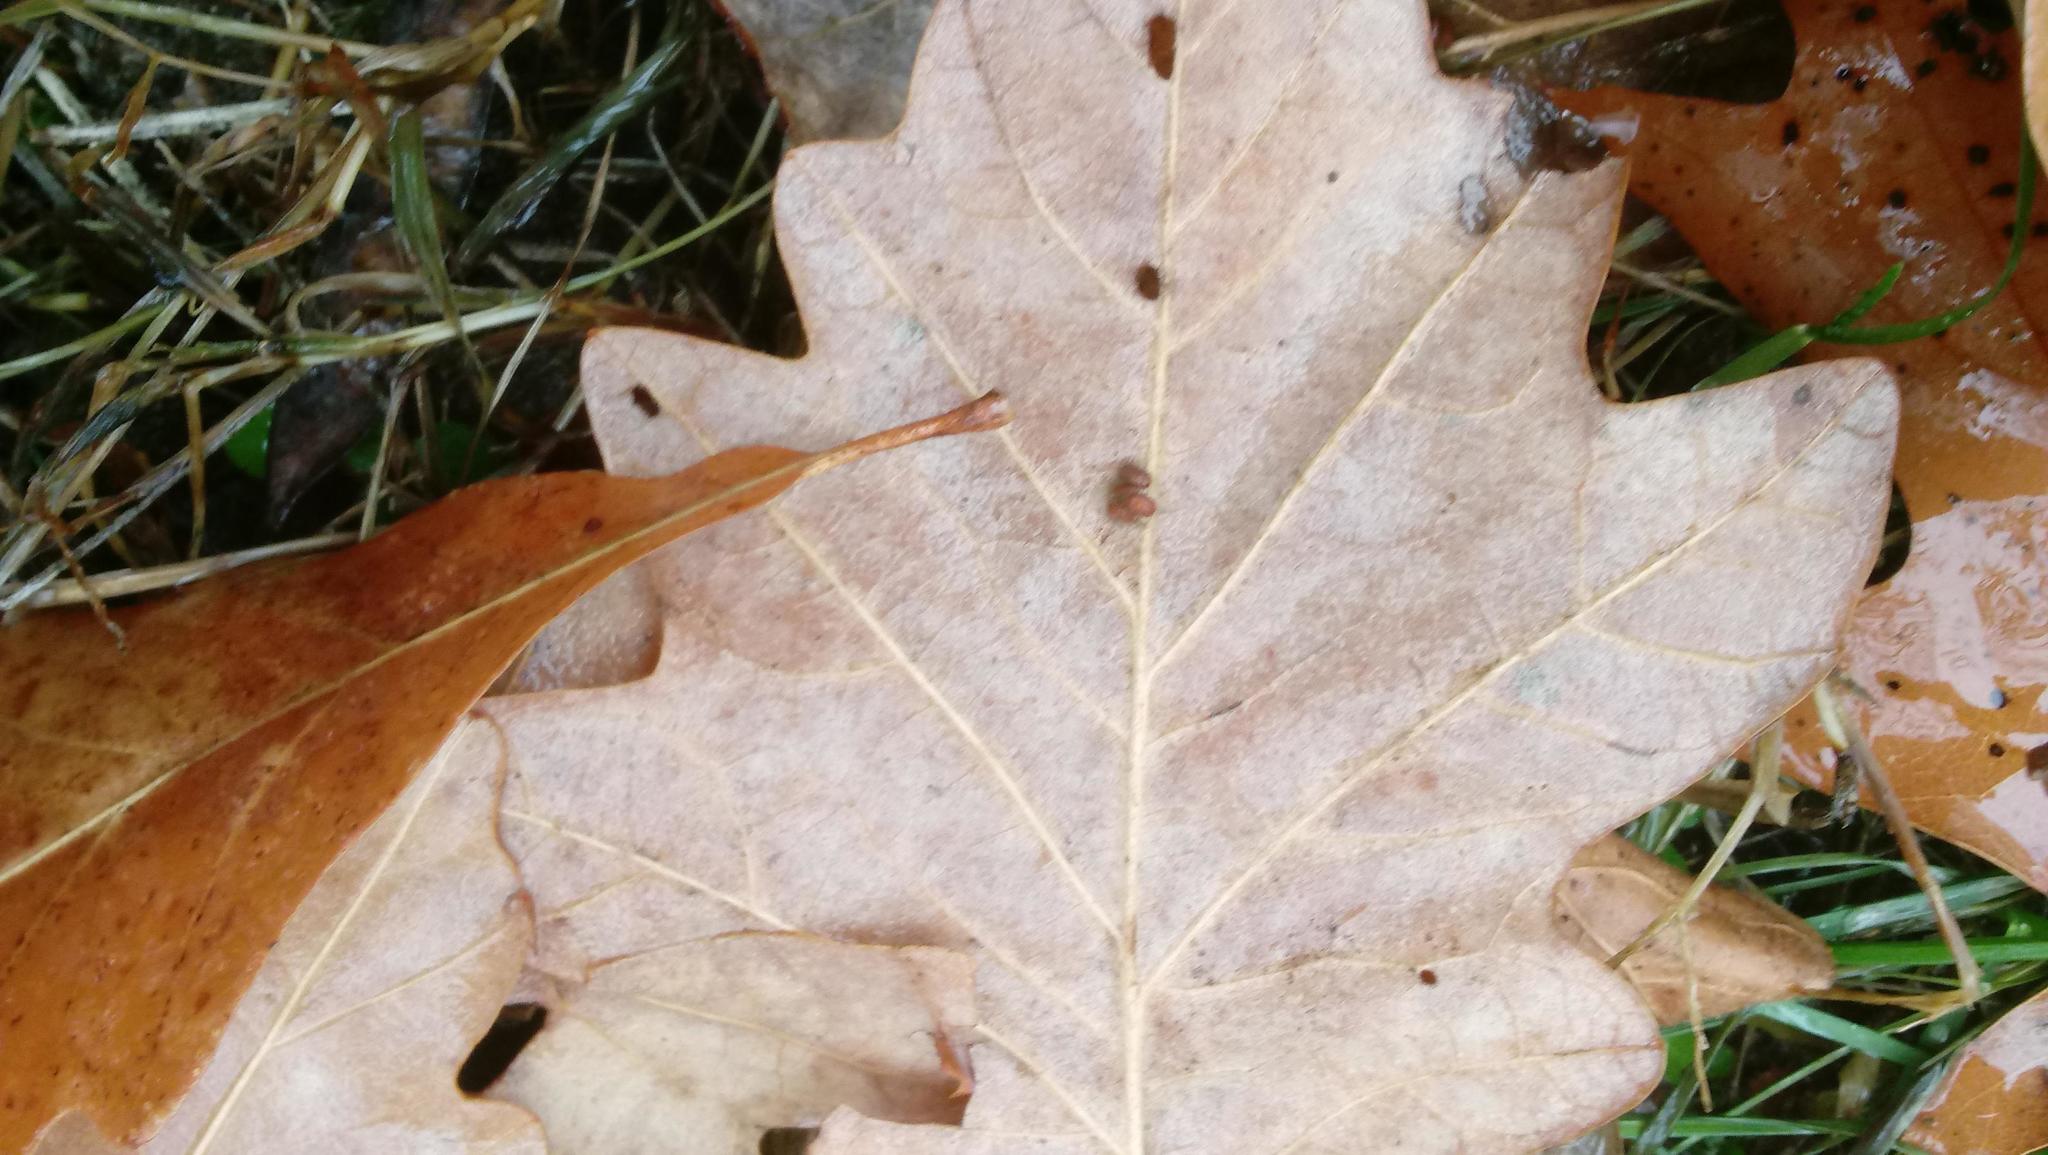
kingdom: Animalia
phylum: Arthropoda
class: Insecta
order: Hymenoptera
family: Cynipidae
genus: Andricus
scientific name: Andricus Druon ignotum
